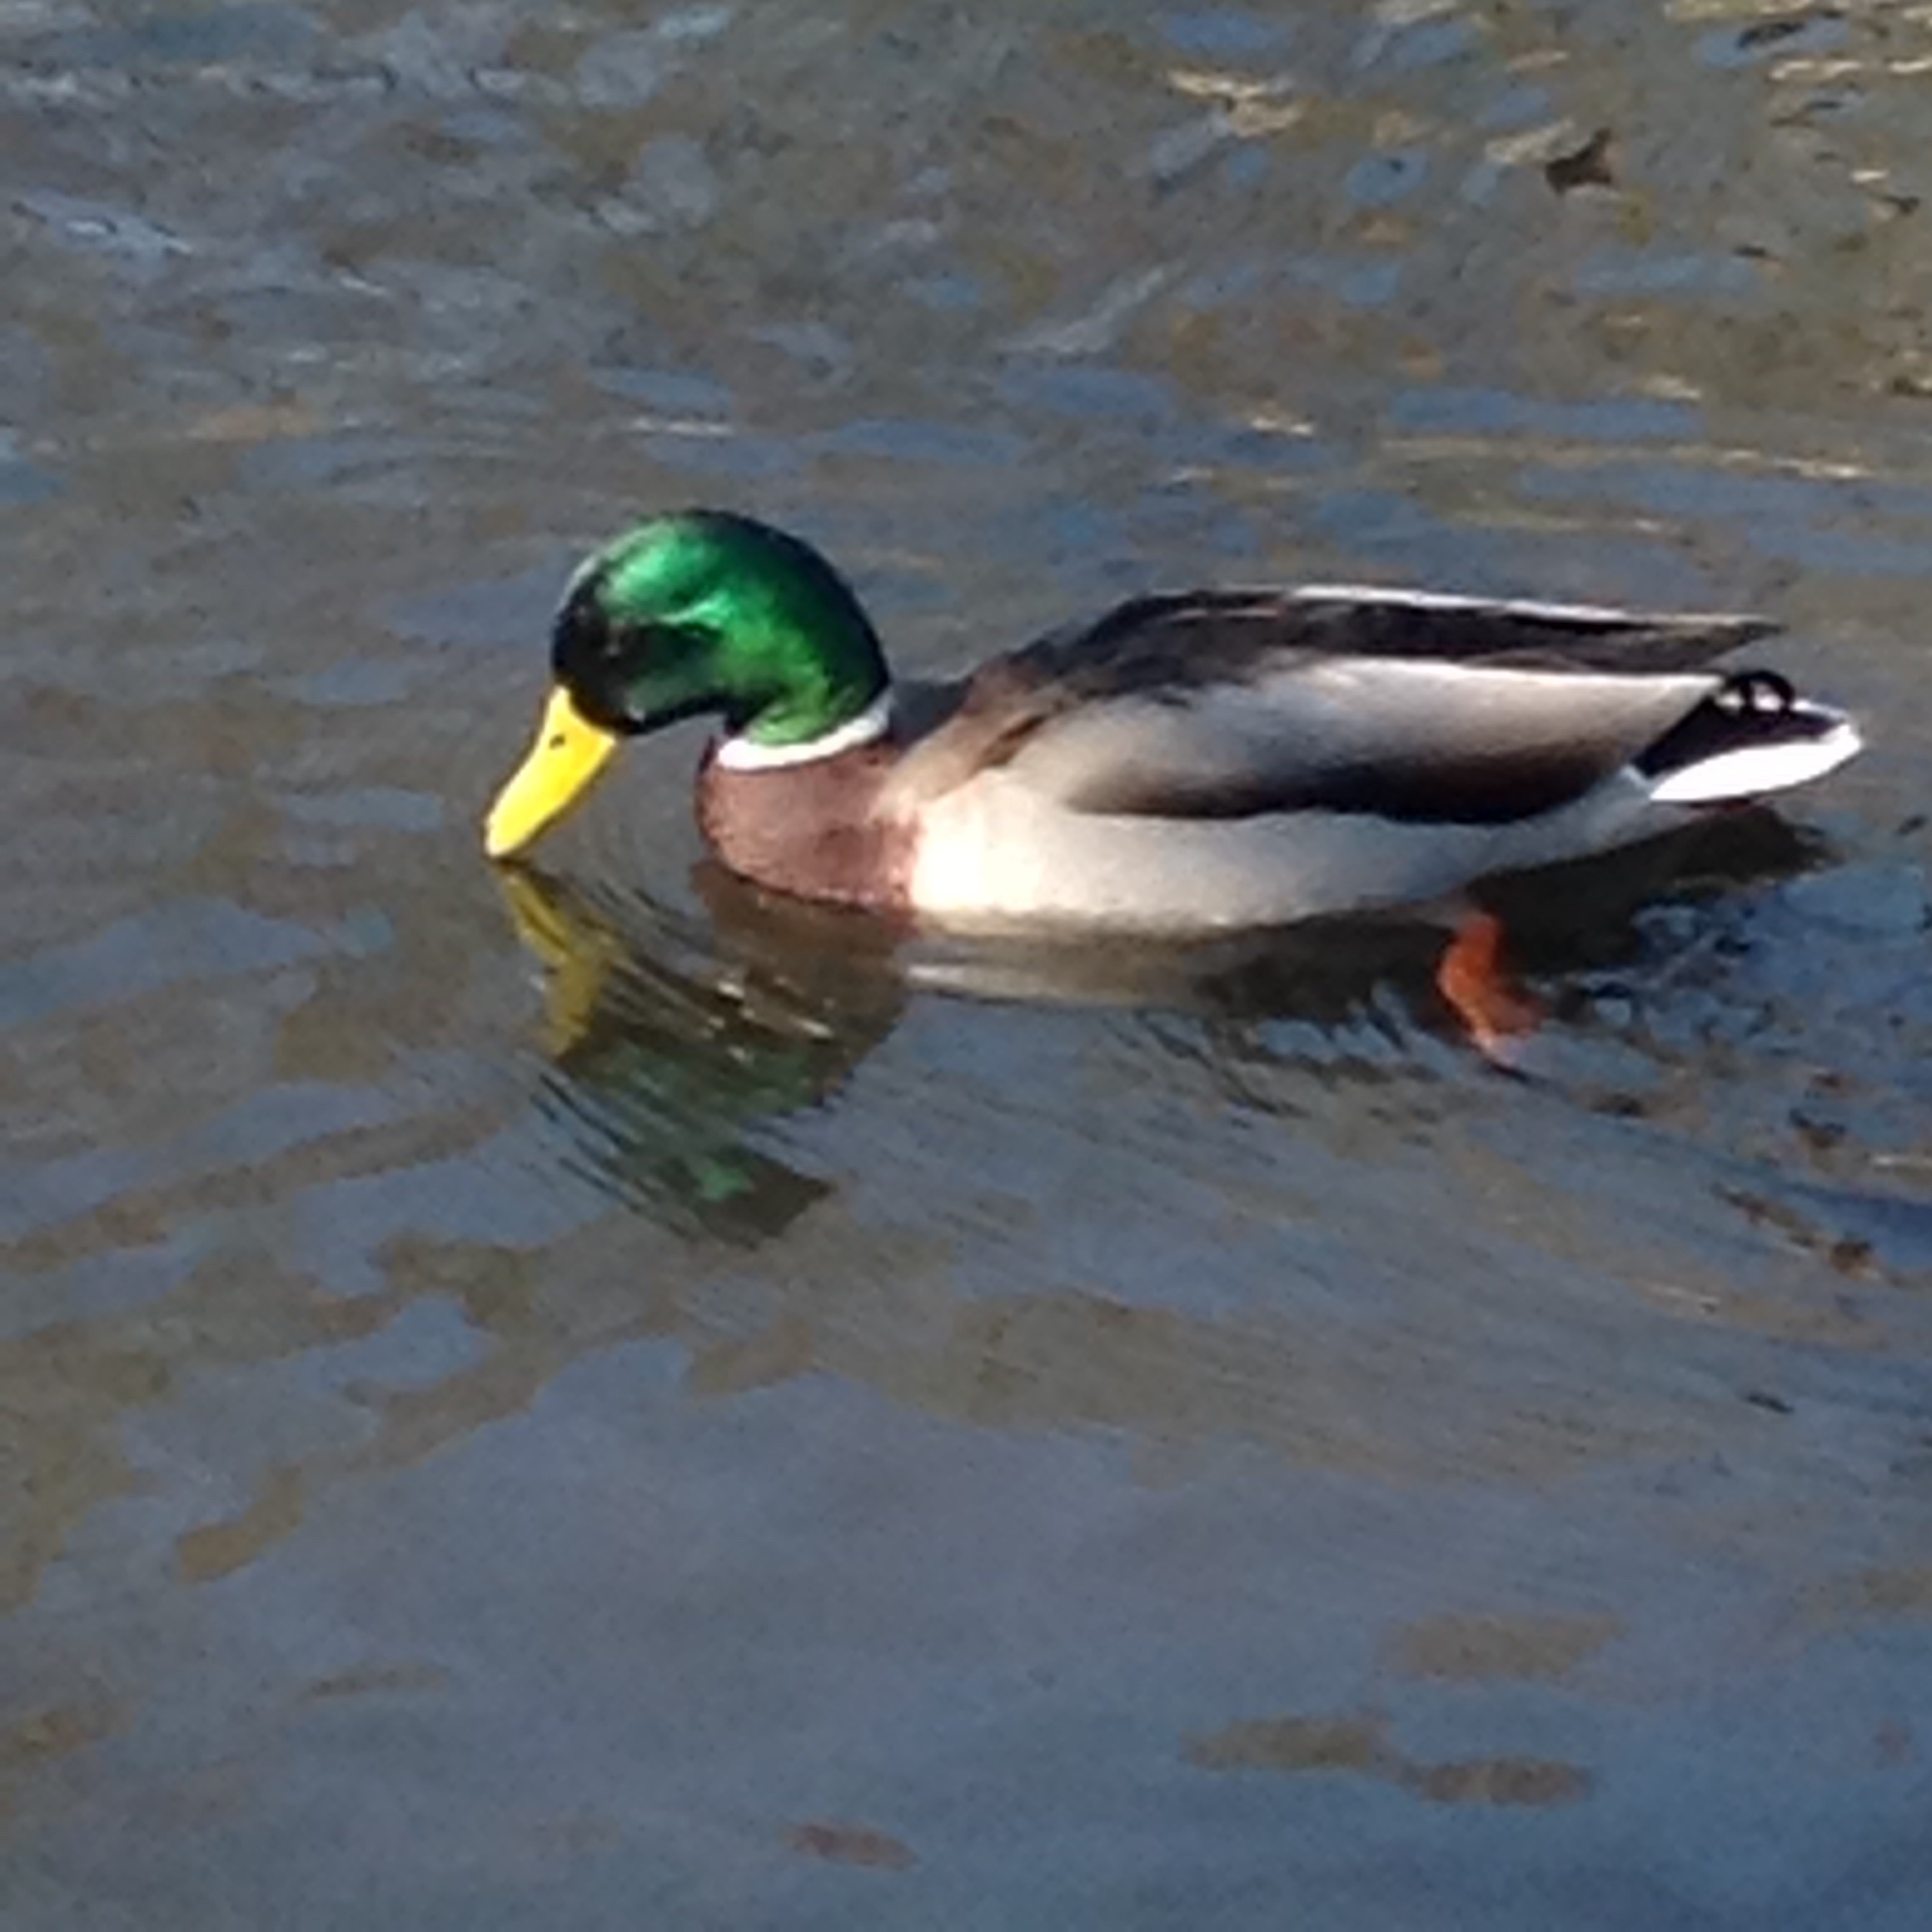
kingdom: Animalia
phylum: Chordata
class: Aves
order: Anseriformes
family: Anatidae
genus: Anas
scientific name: Anas platyrhynchos
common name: Mallard
